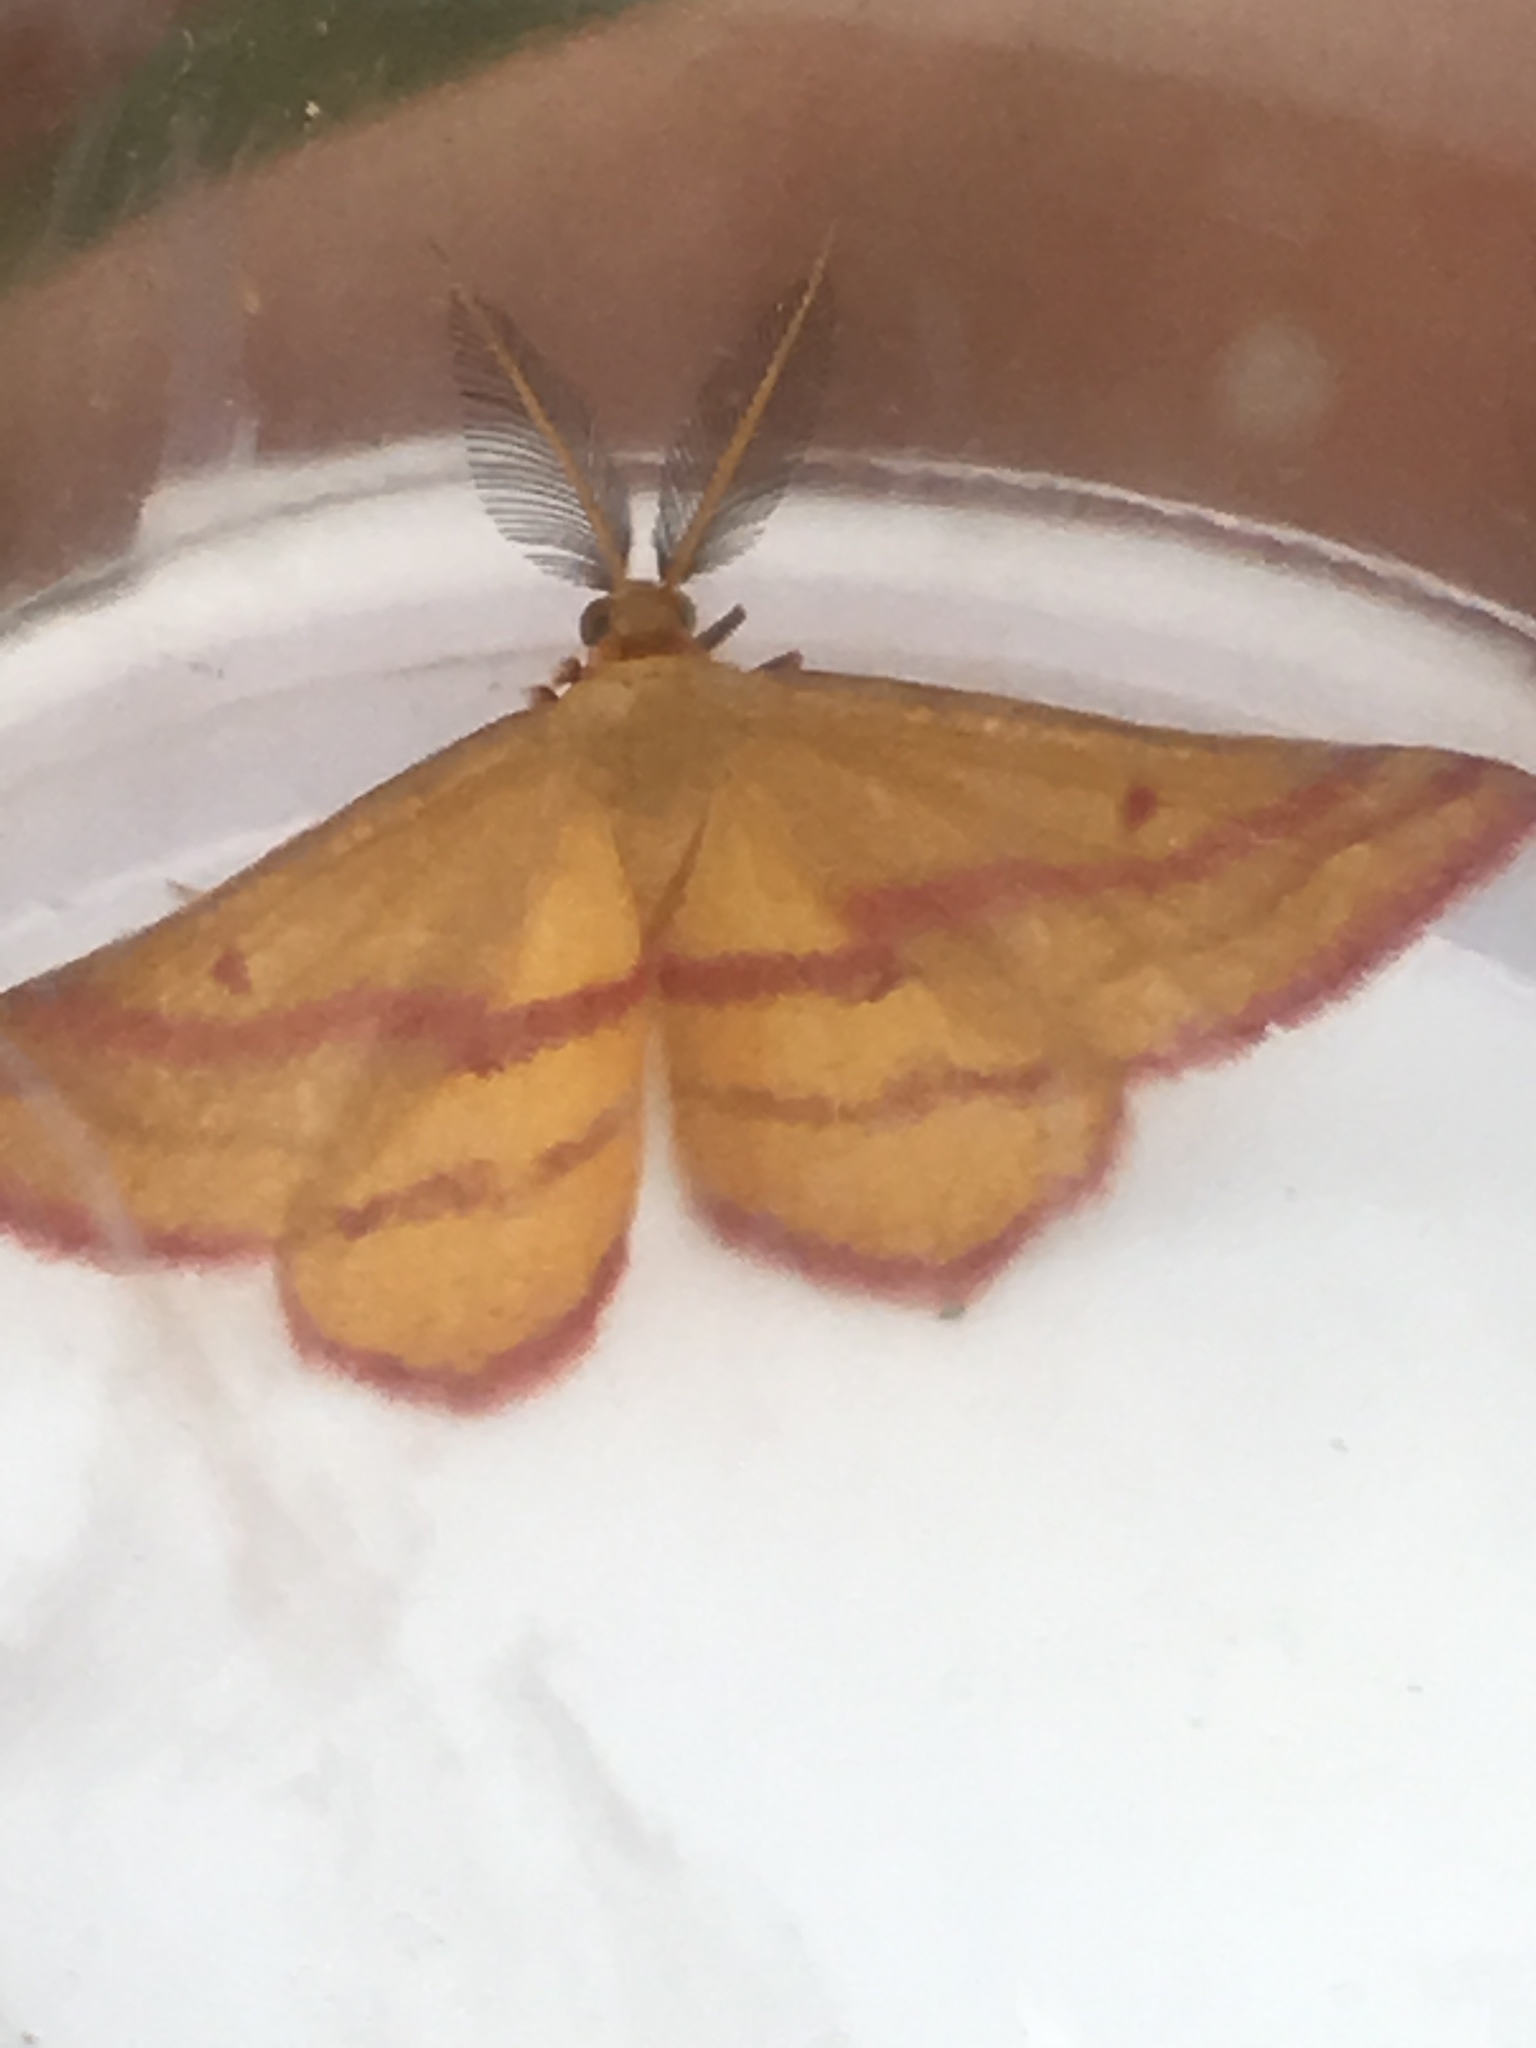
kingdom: Animalia
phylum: Arthropoda
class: Insecta
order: Lepidoptera
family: Geometridae
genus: Haematopis
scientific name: Haematopis grataria
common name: Chickweed geometer
